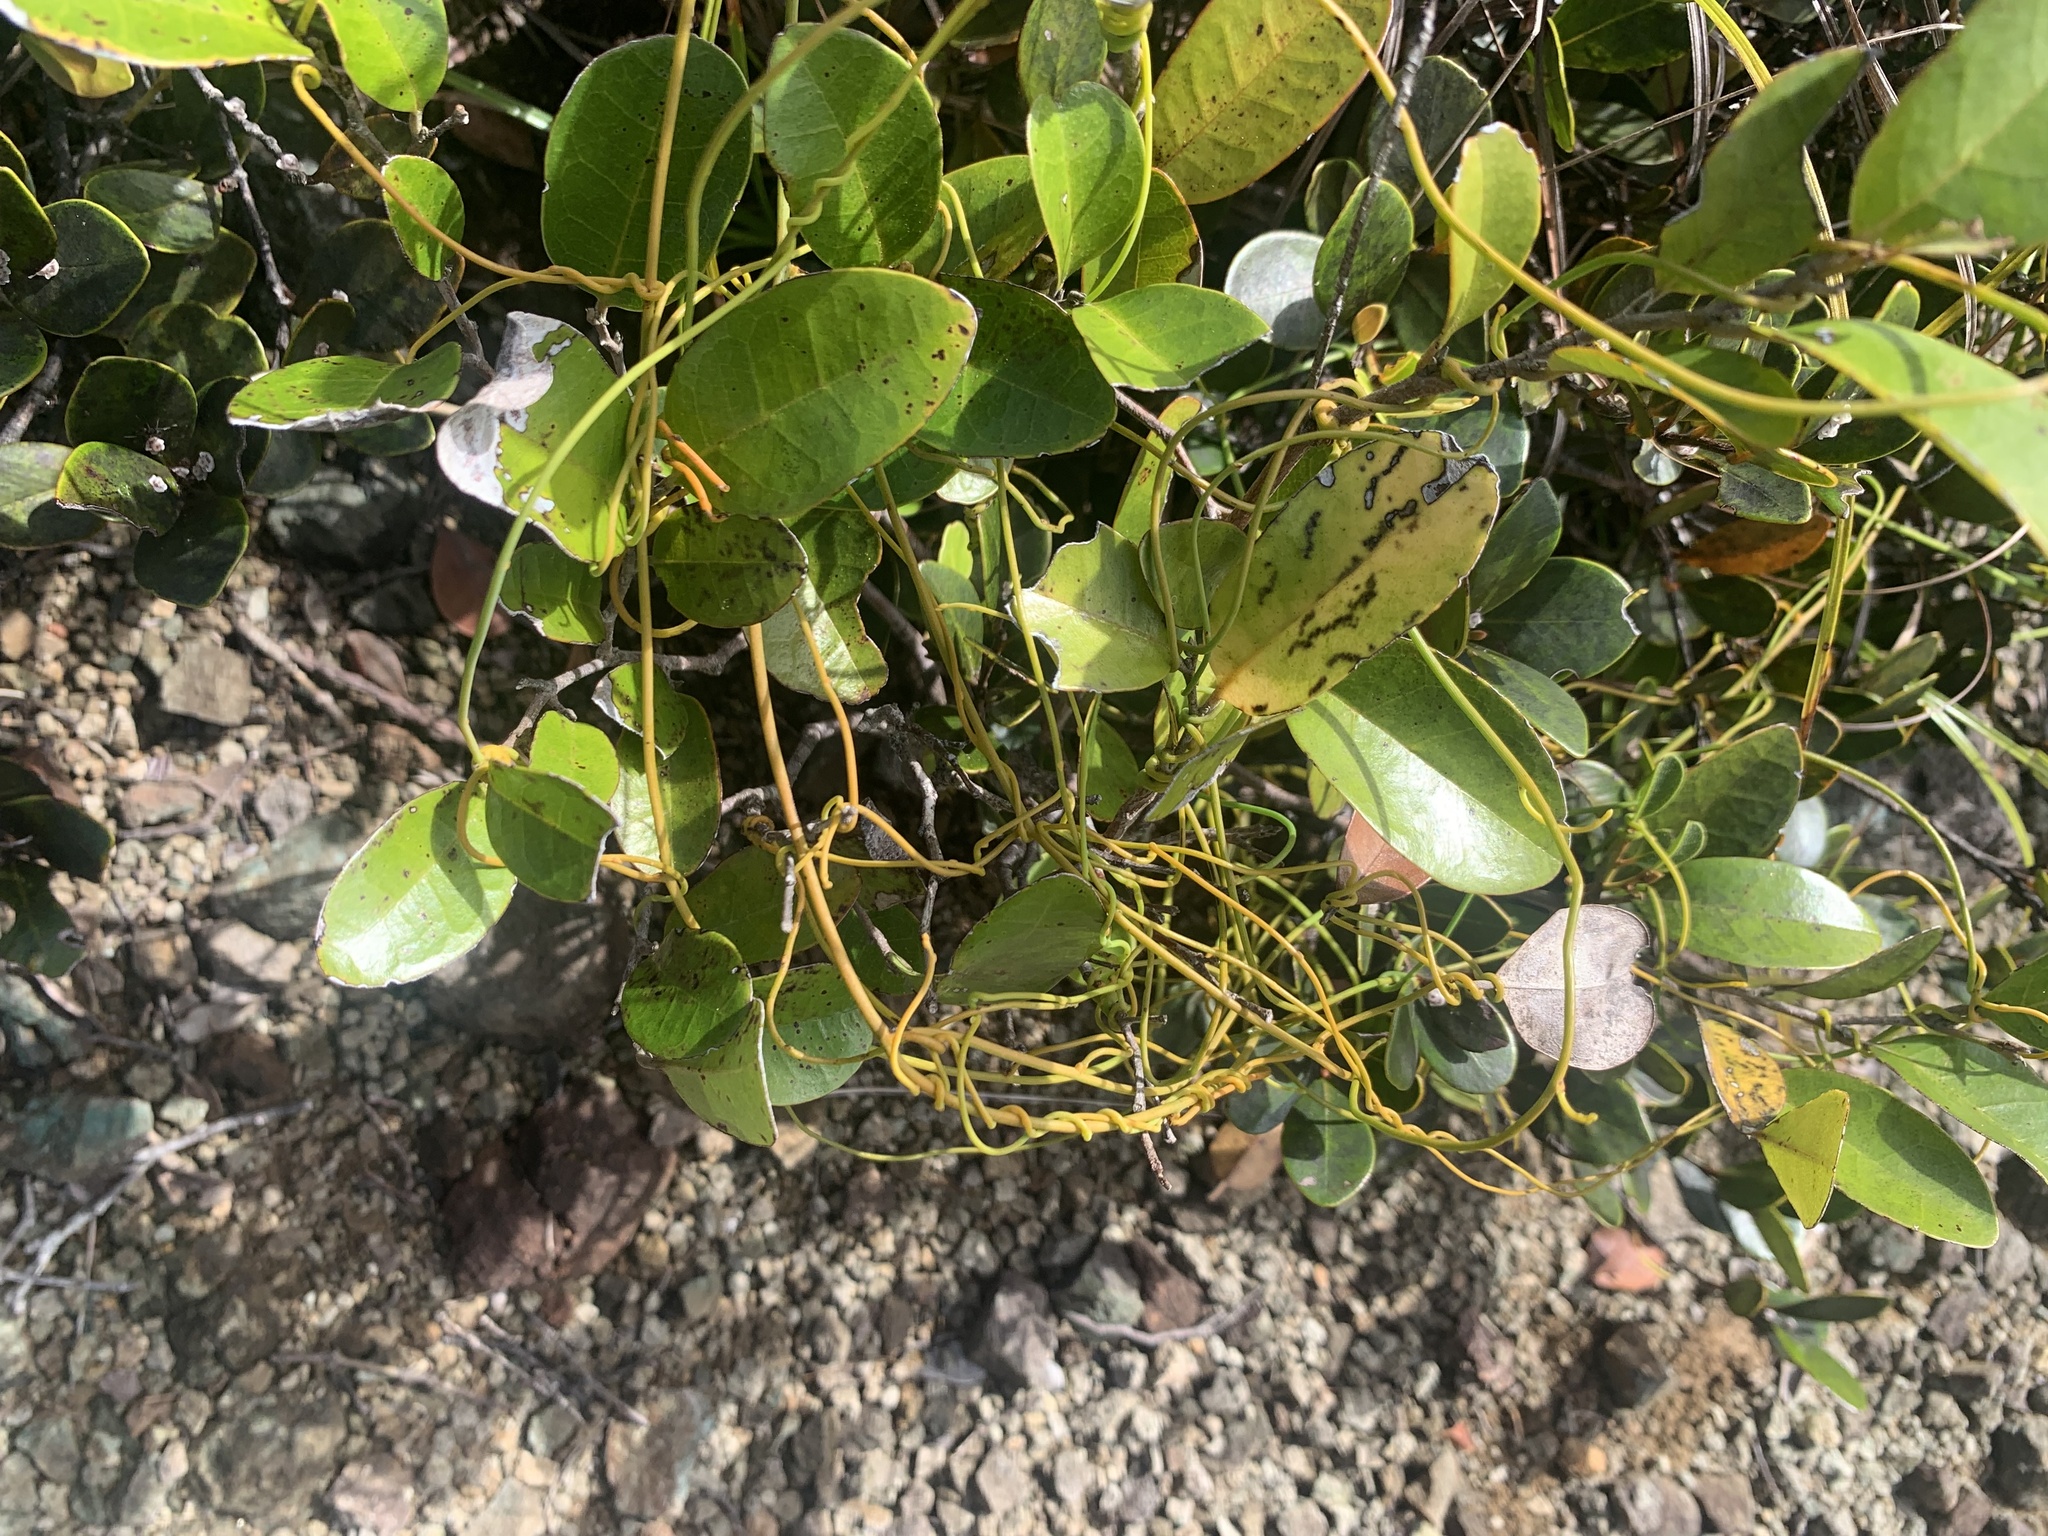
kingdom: Plantae
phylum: Tracheophyta
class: Magnoliopsida
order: Laurales
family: Lauraceae
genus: Cassytha
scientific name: Cassytha filiformis
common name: Dodder-laurel
